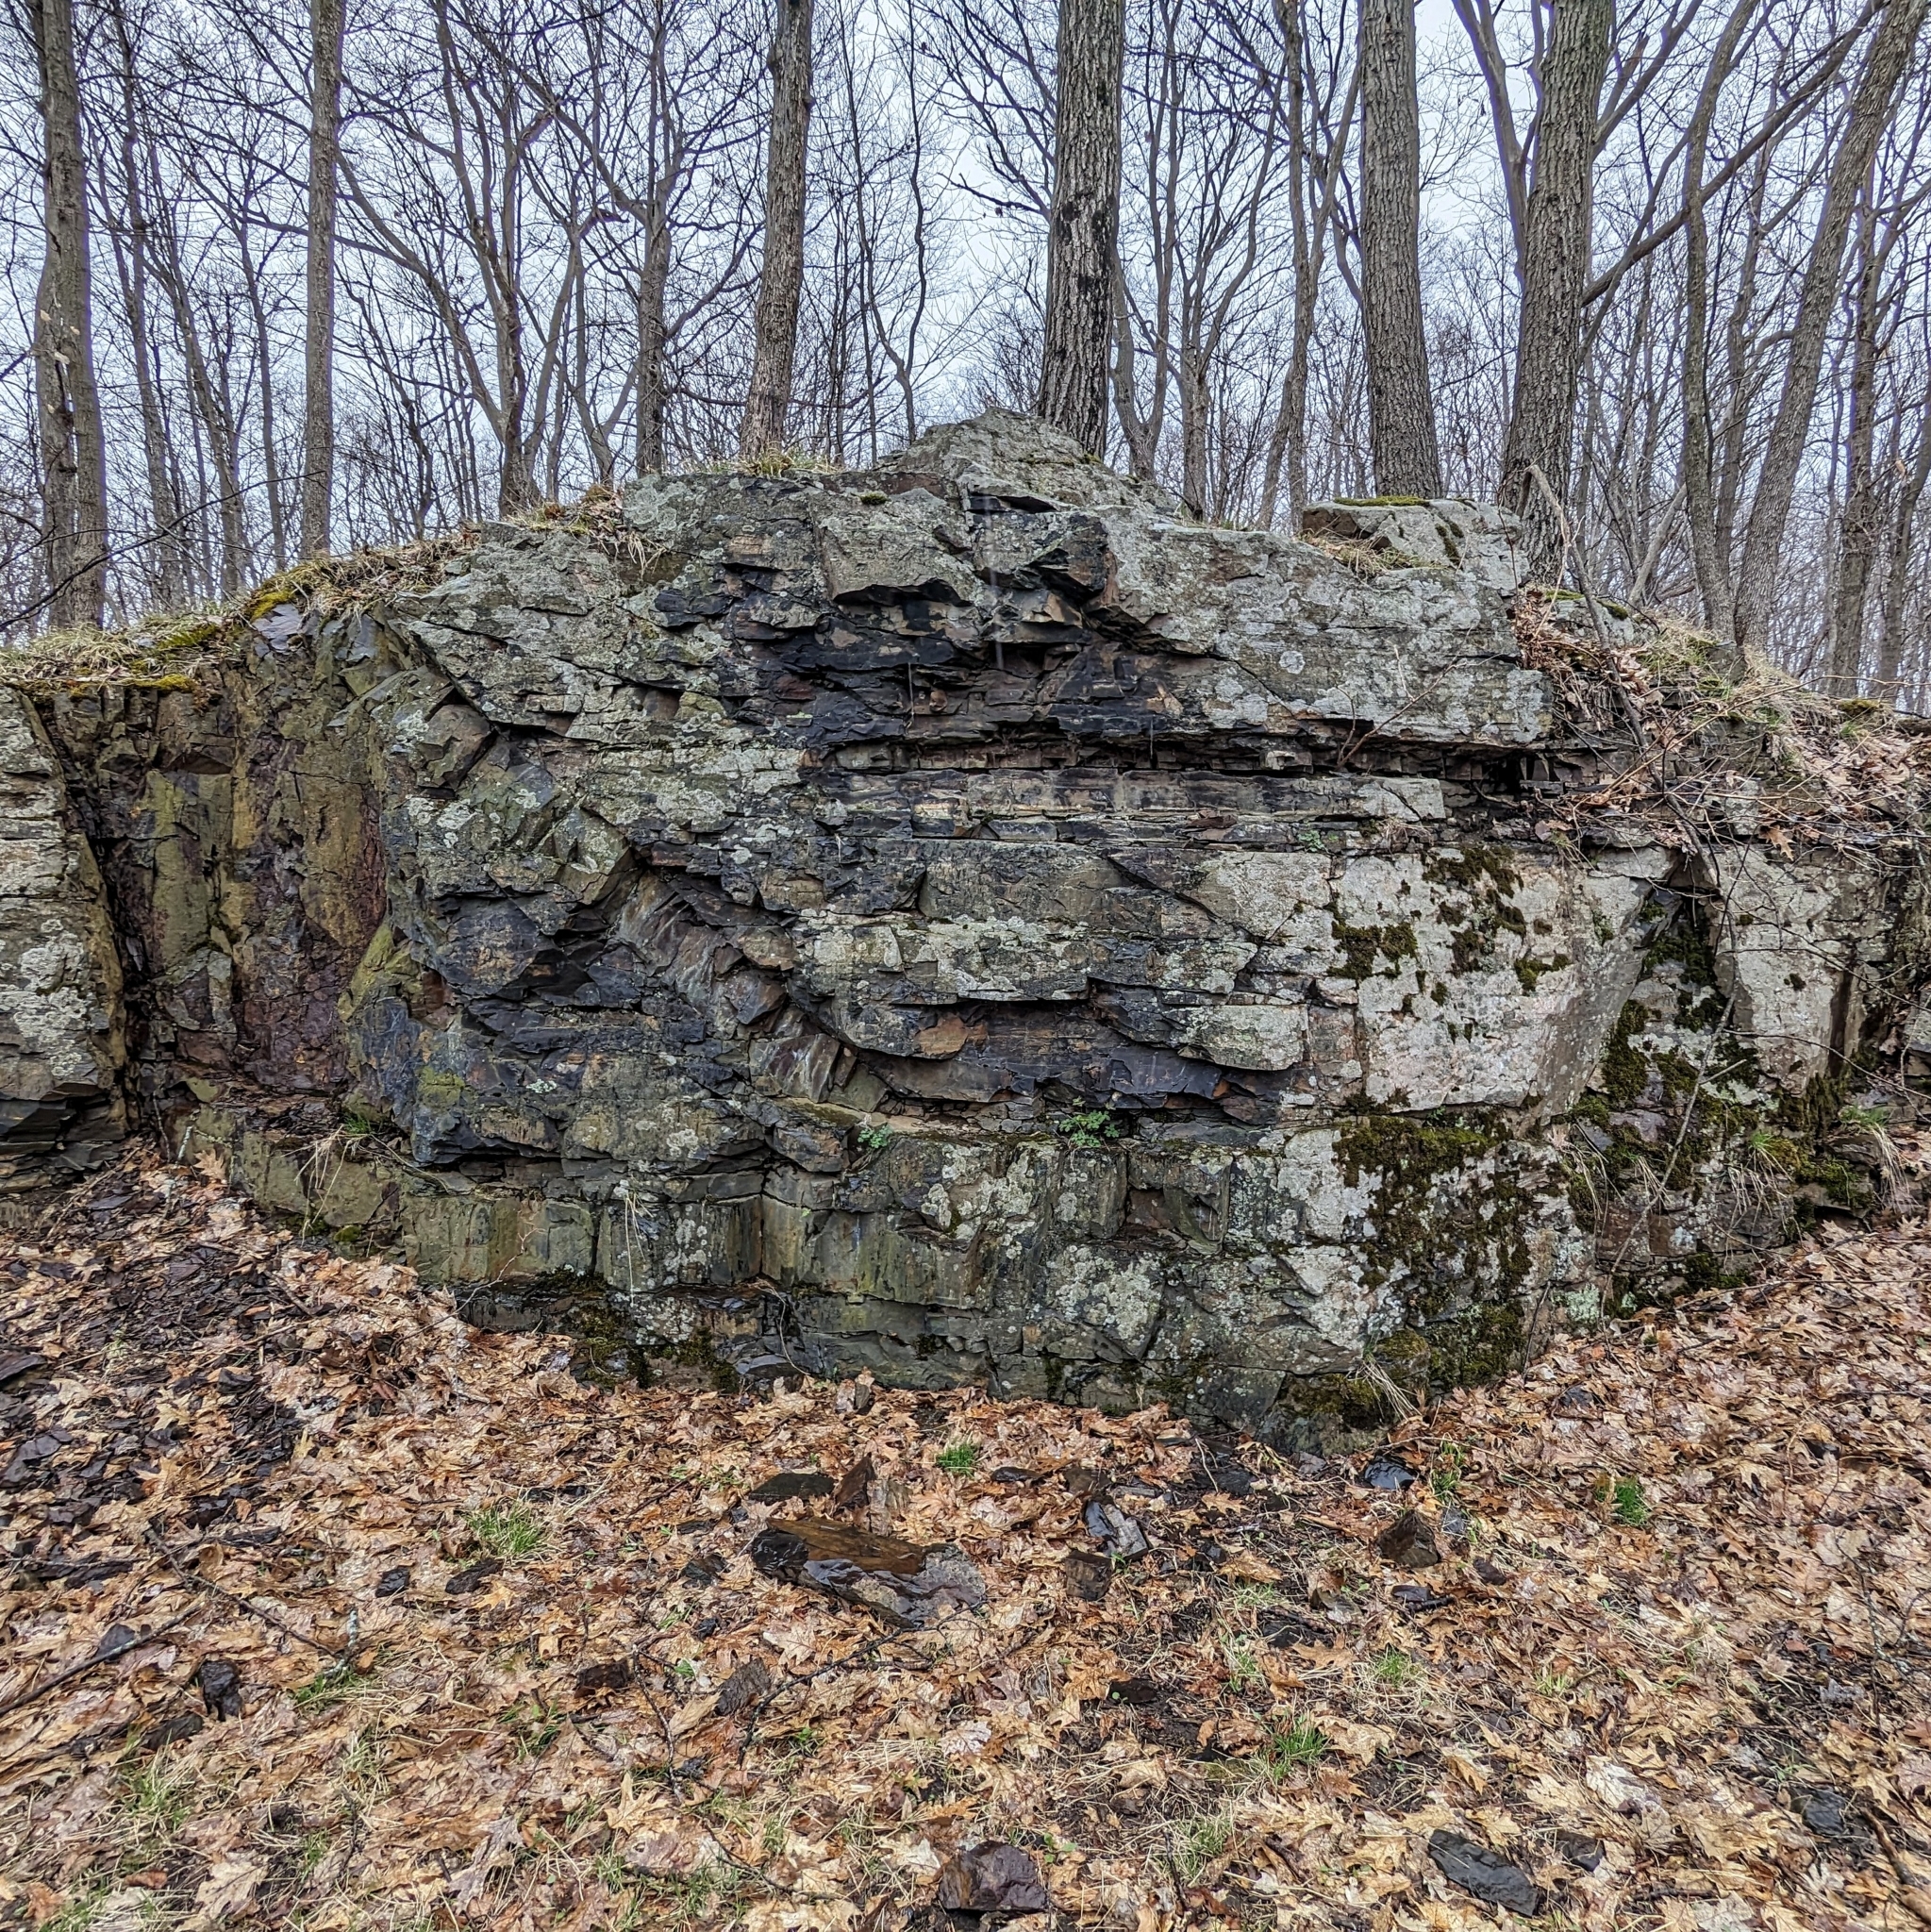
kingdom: Plantae
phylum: Tracheophyta
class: Magnoliopsida
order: Ranunculales
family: Ranunculaceae
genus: Aquilegia
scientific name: Aquilegia canadensis
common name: American columbine
